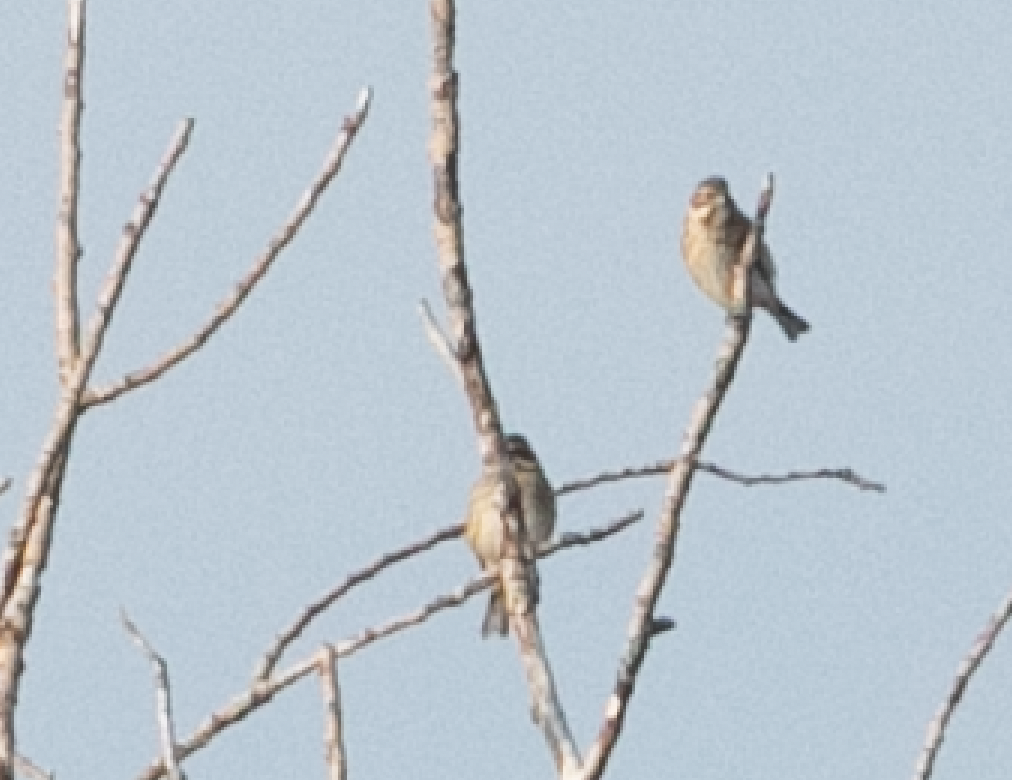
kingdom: Animalia
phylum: Chordata
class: Aves
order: Passeriformes
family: Emberizidae
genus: Emberiza
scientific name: Emberiza schoeniclus
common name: Reed bunting
